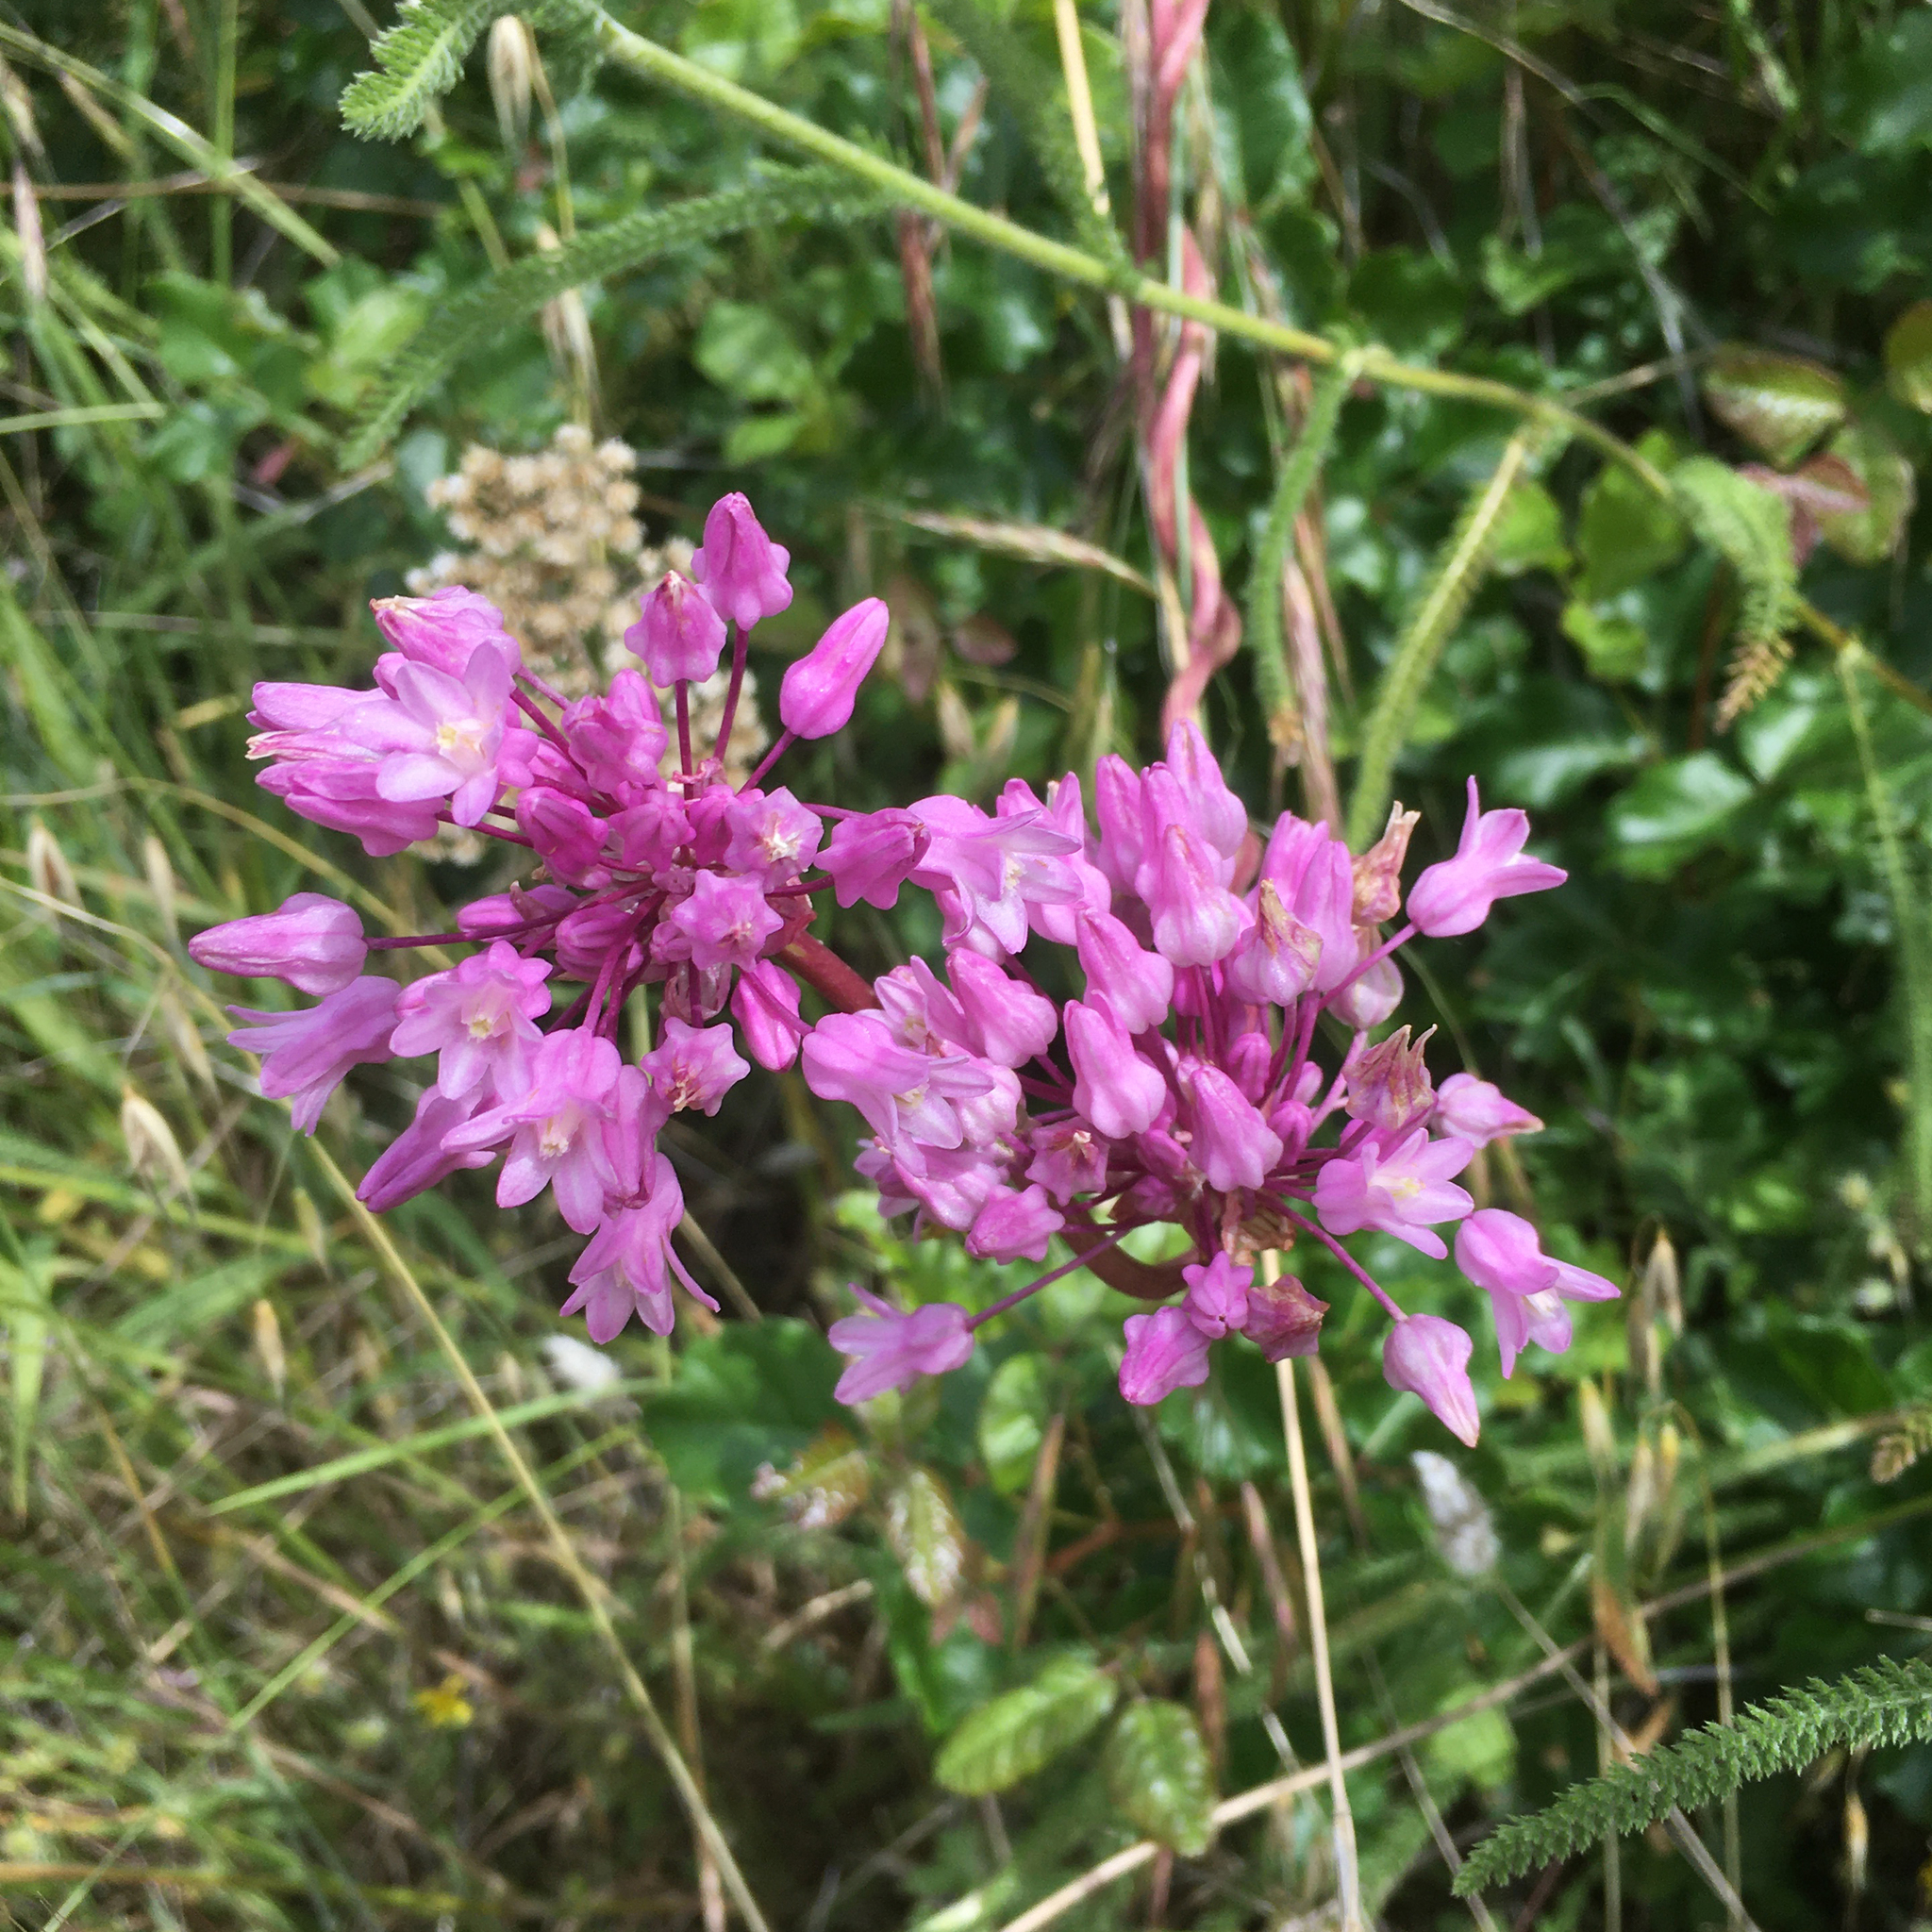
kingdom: Plantae
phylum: Tracheophyta
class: Liliopsida
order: Asparagales
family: Asparagaceae
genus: Dichelostemma
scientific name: Dichelostemma volubile
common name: Trining brodiaea
